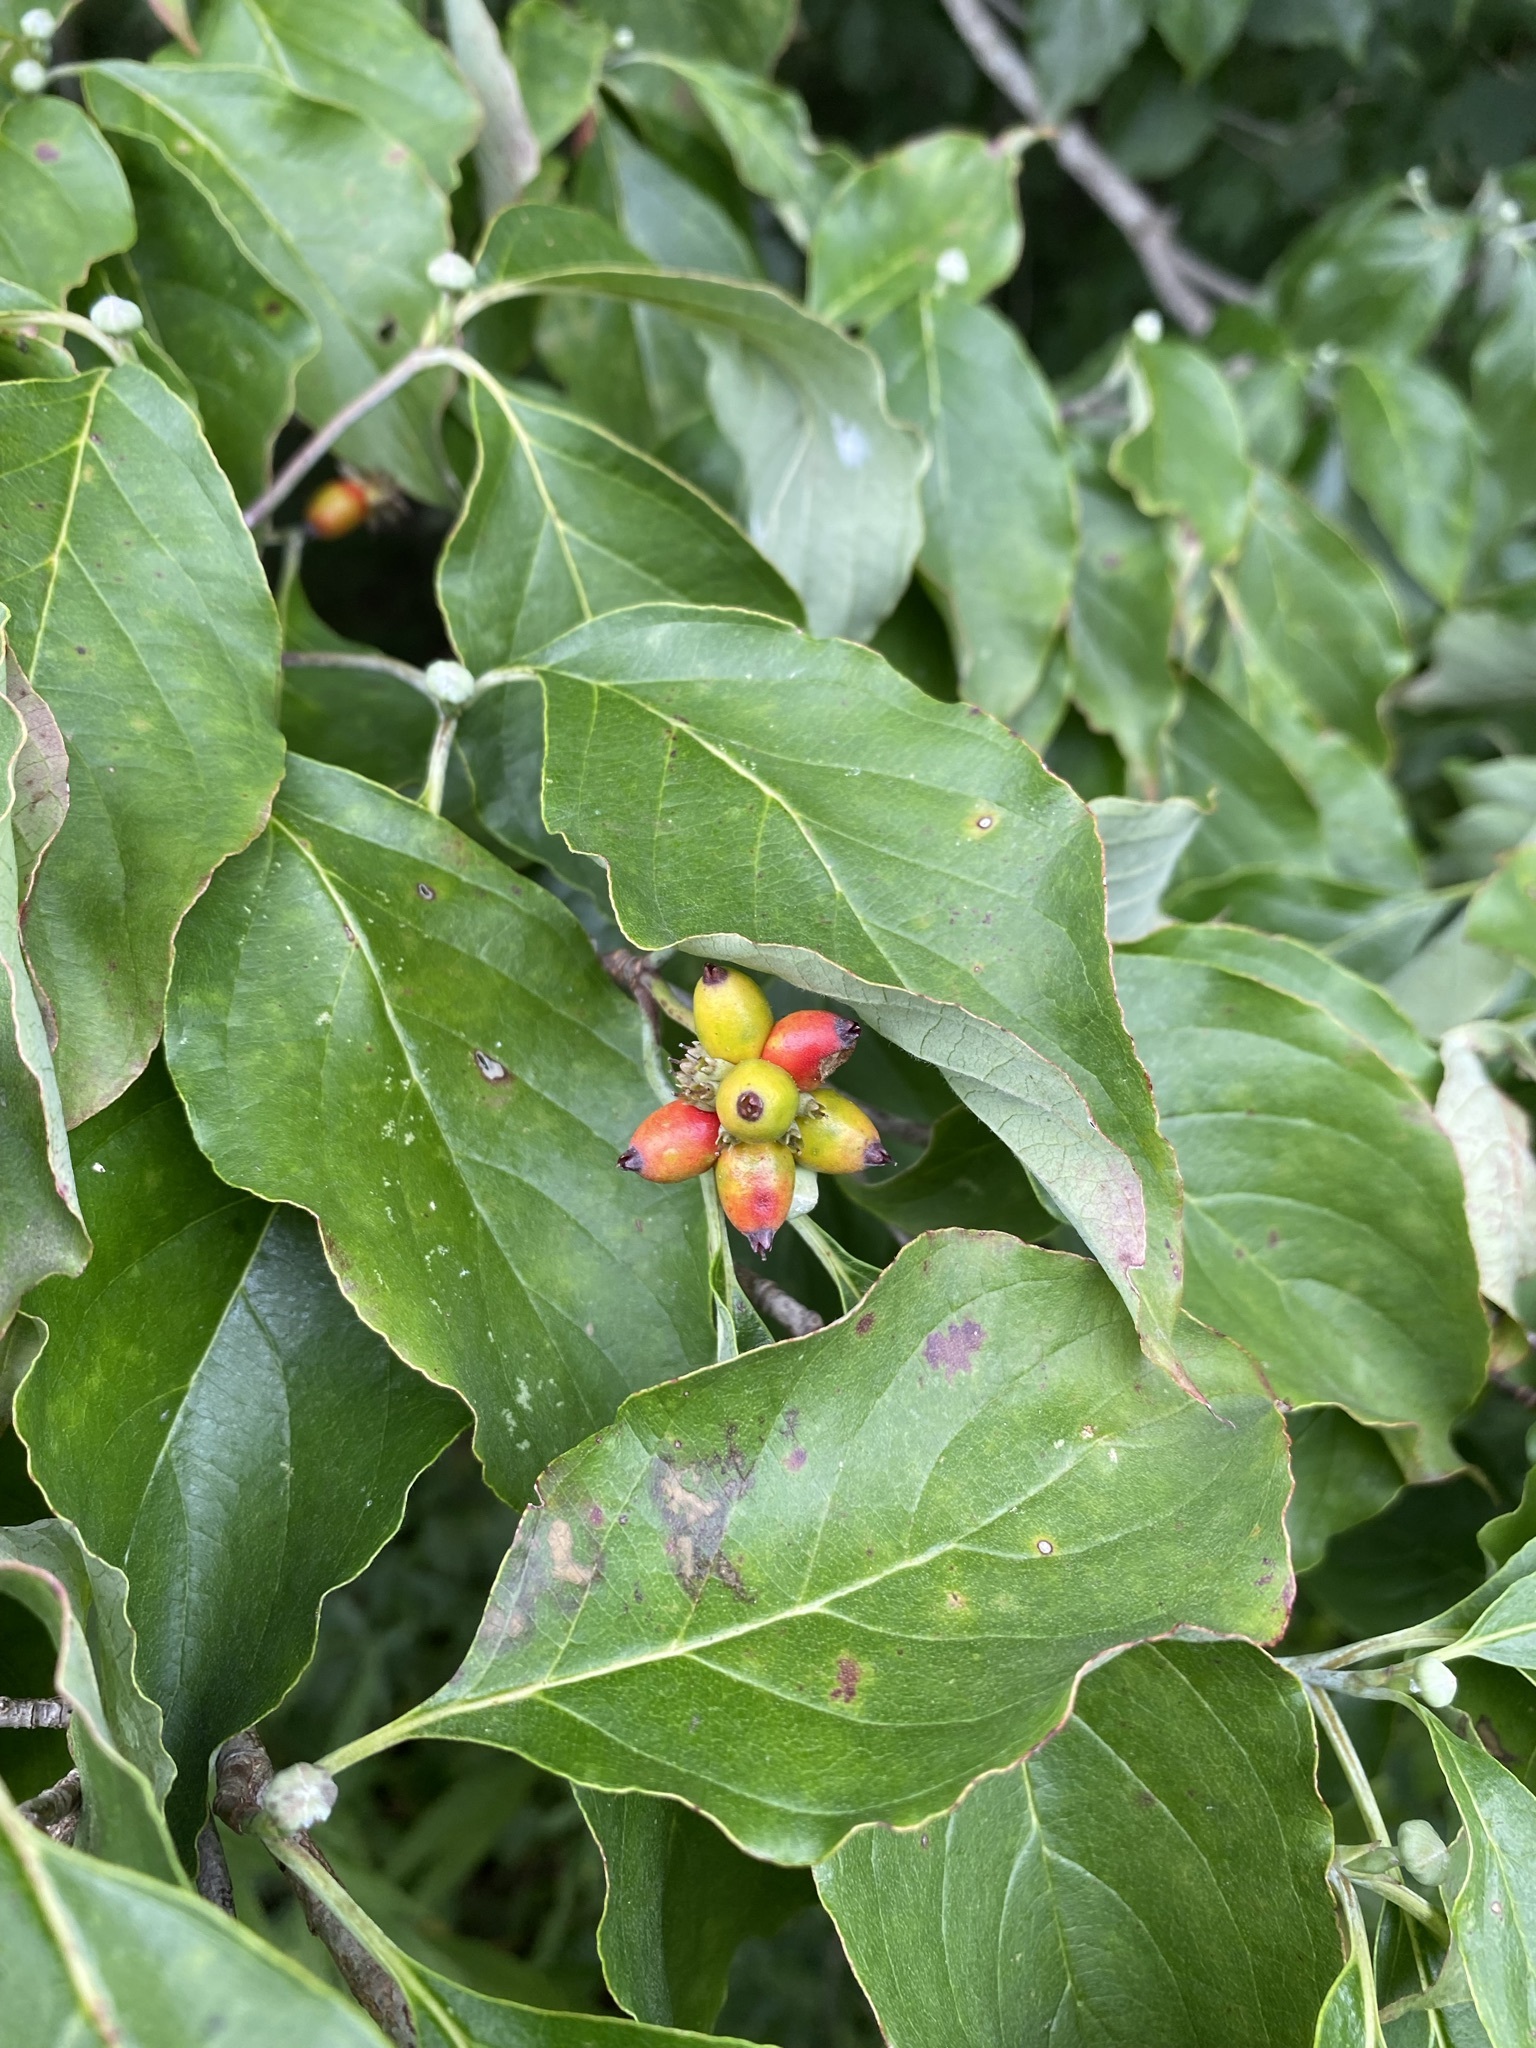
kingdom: Plantae
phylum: Tracheophyta
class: Magnoliopsida
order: Cornales
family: Cornaceae
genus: Cornus
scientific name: Cornus florida
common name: Flowering dogwood
